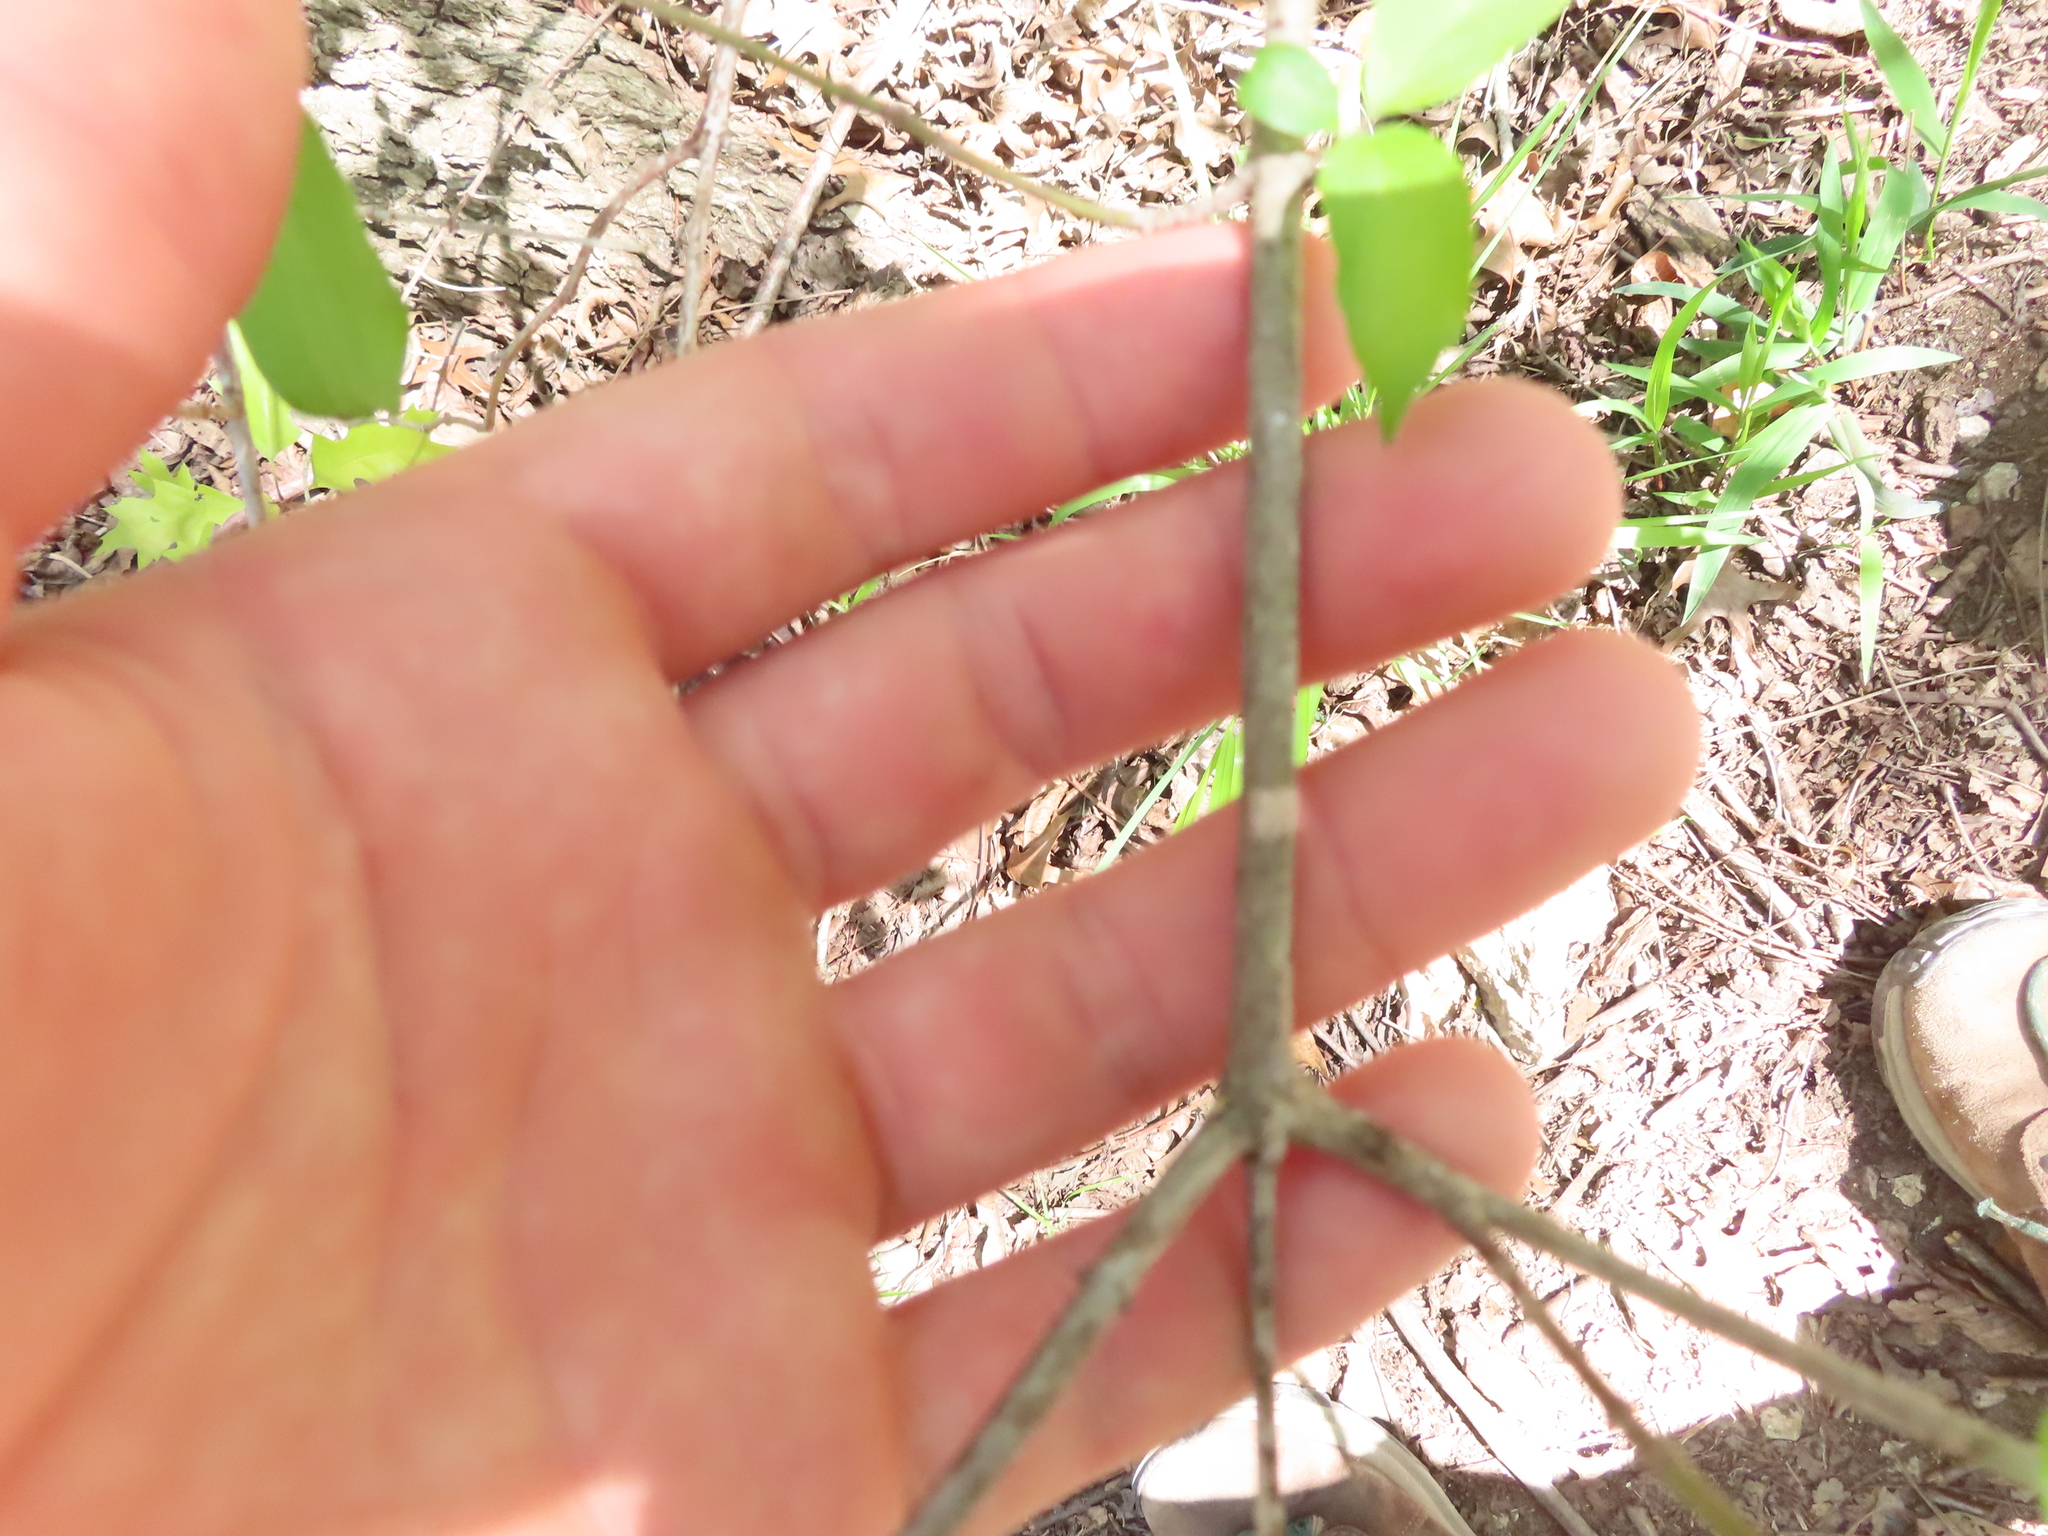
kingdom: Plantae
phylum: Tracheophyta
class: Magnoliopsida
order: Cornales
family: Cornaceae
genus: Cornus
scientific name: Cornus drummondii
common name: Rough-leaf dogwood
